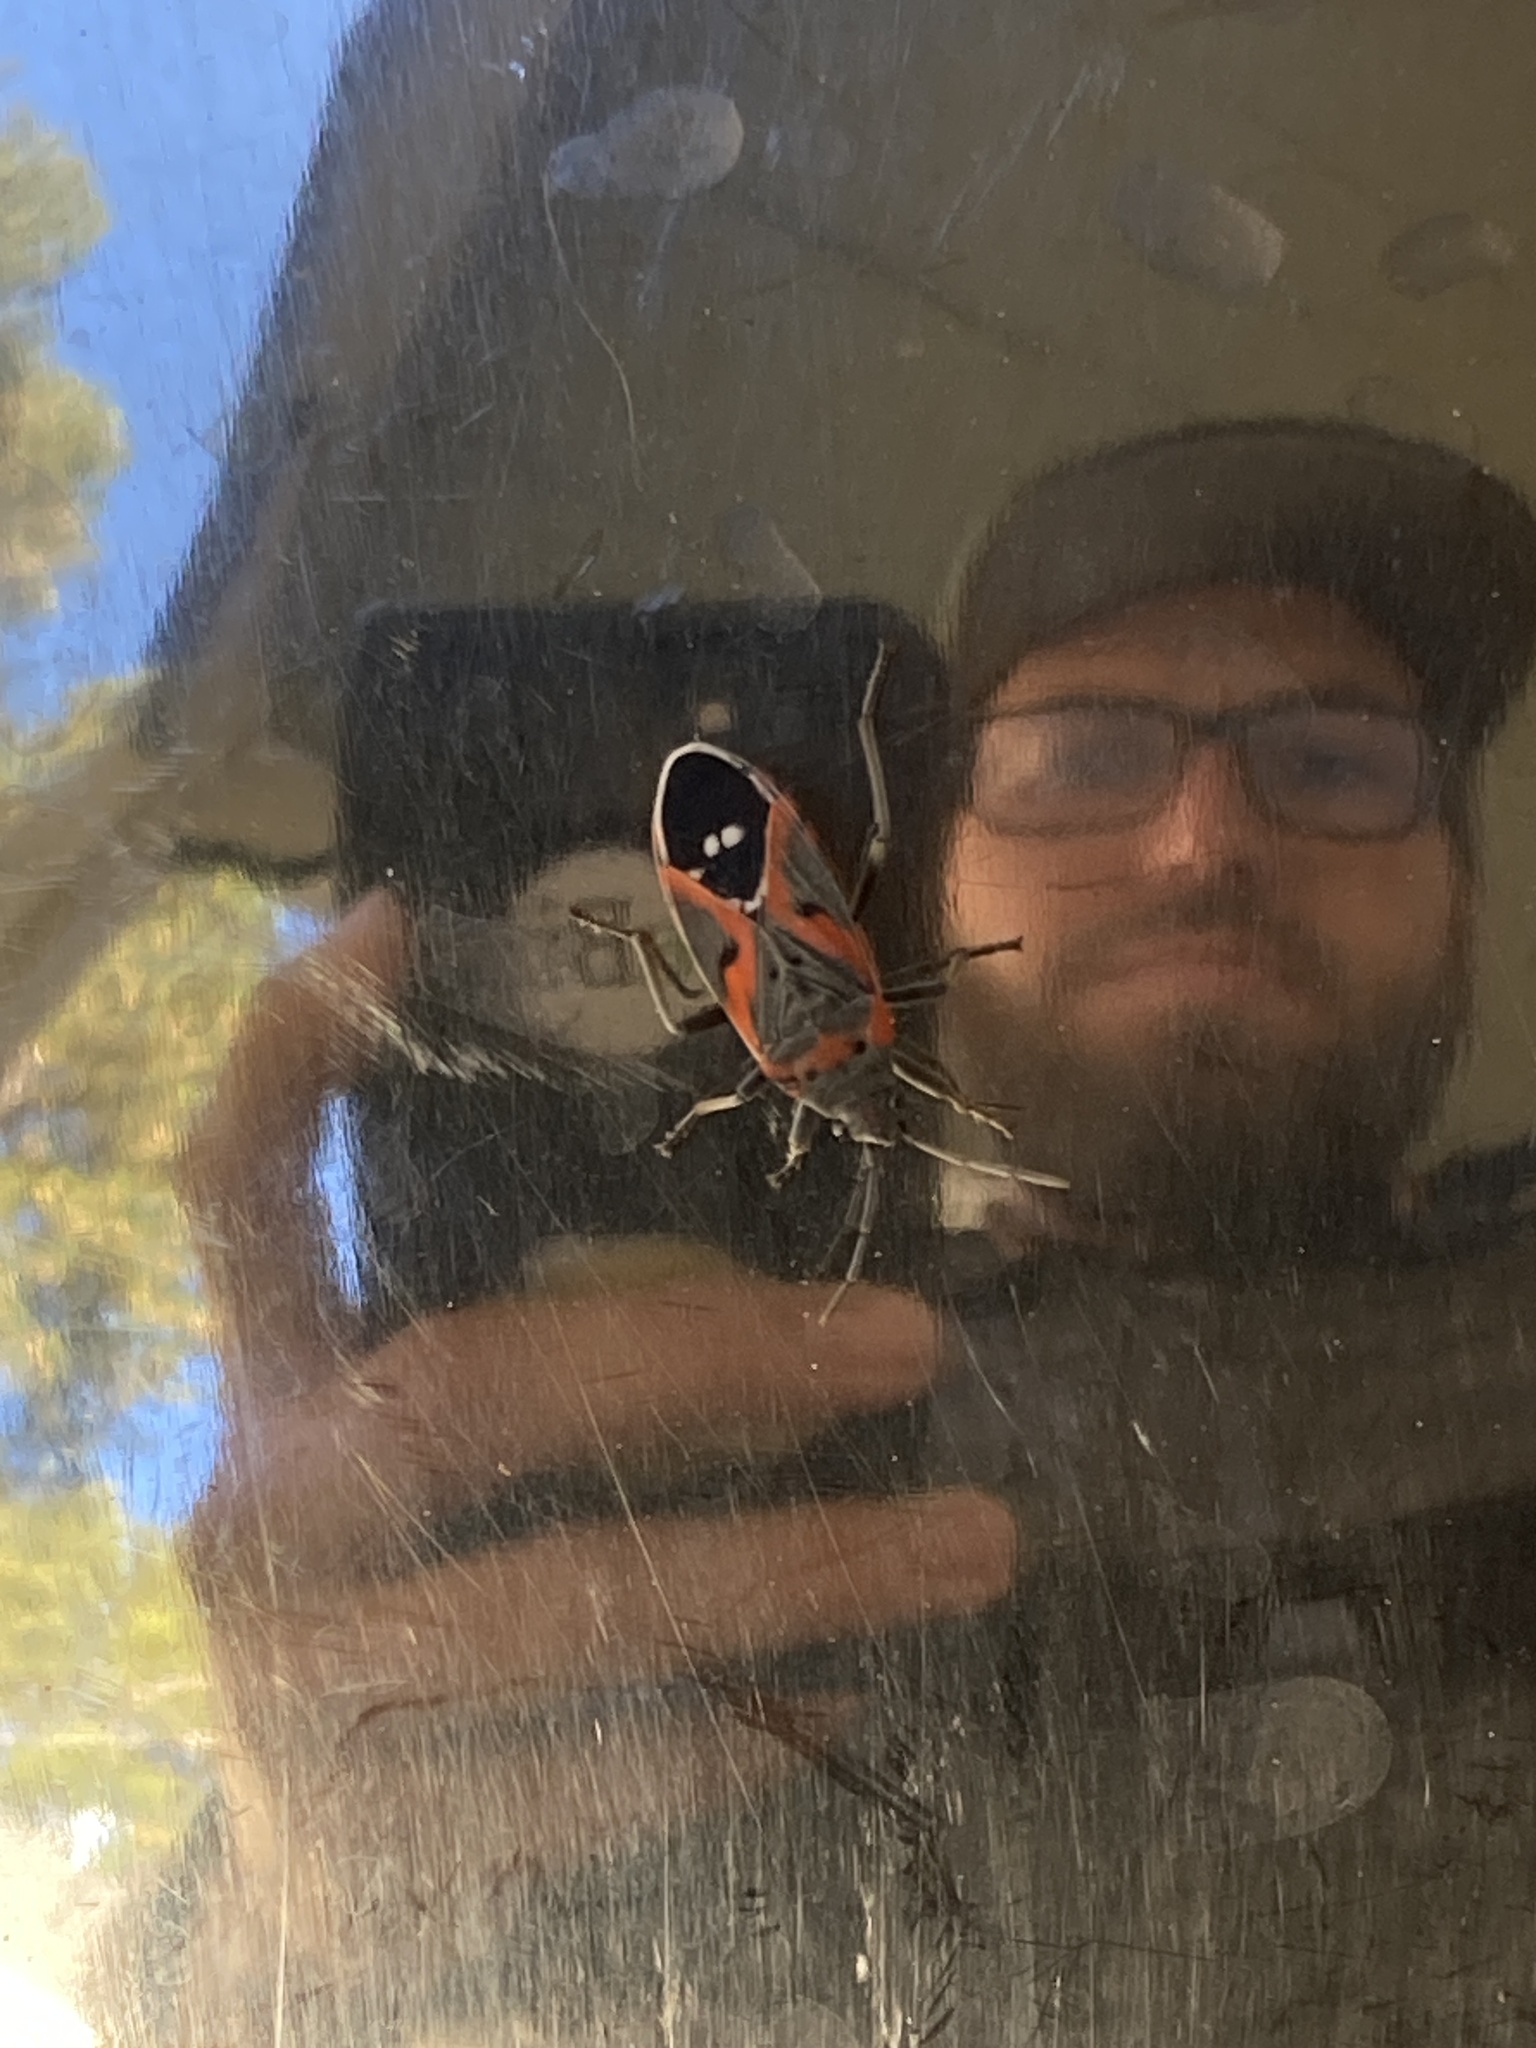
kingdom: Animalia
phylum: Arthropoda
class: Insecta
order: Hemiptera
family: Lygaeidae
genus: Lygaeus
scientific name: Lygaeus kalmii
